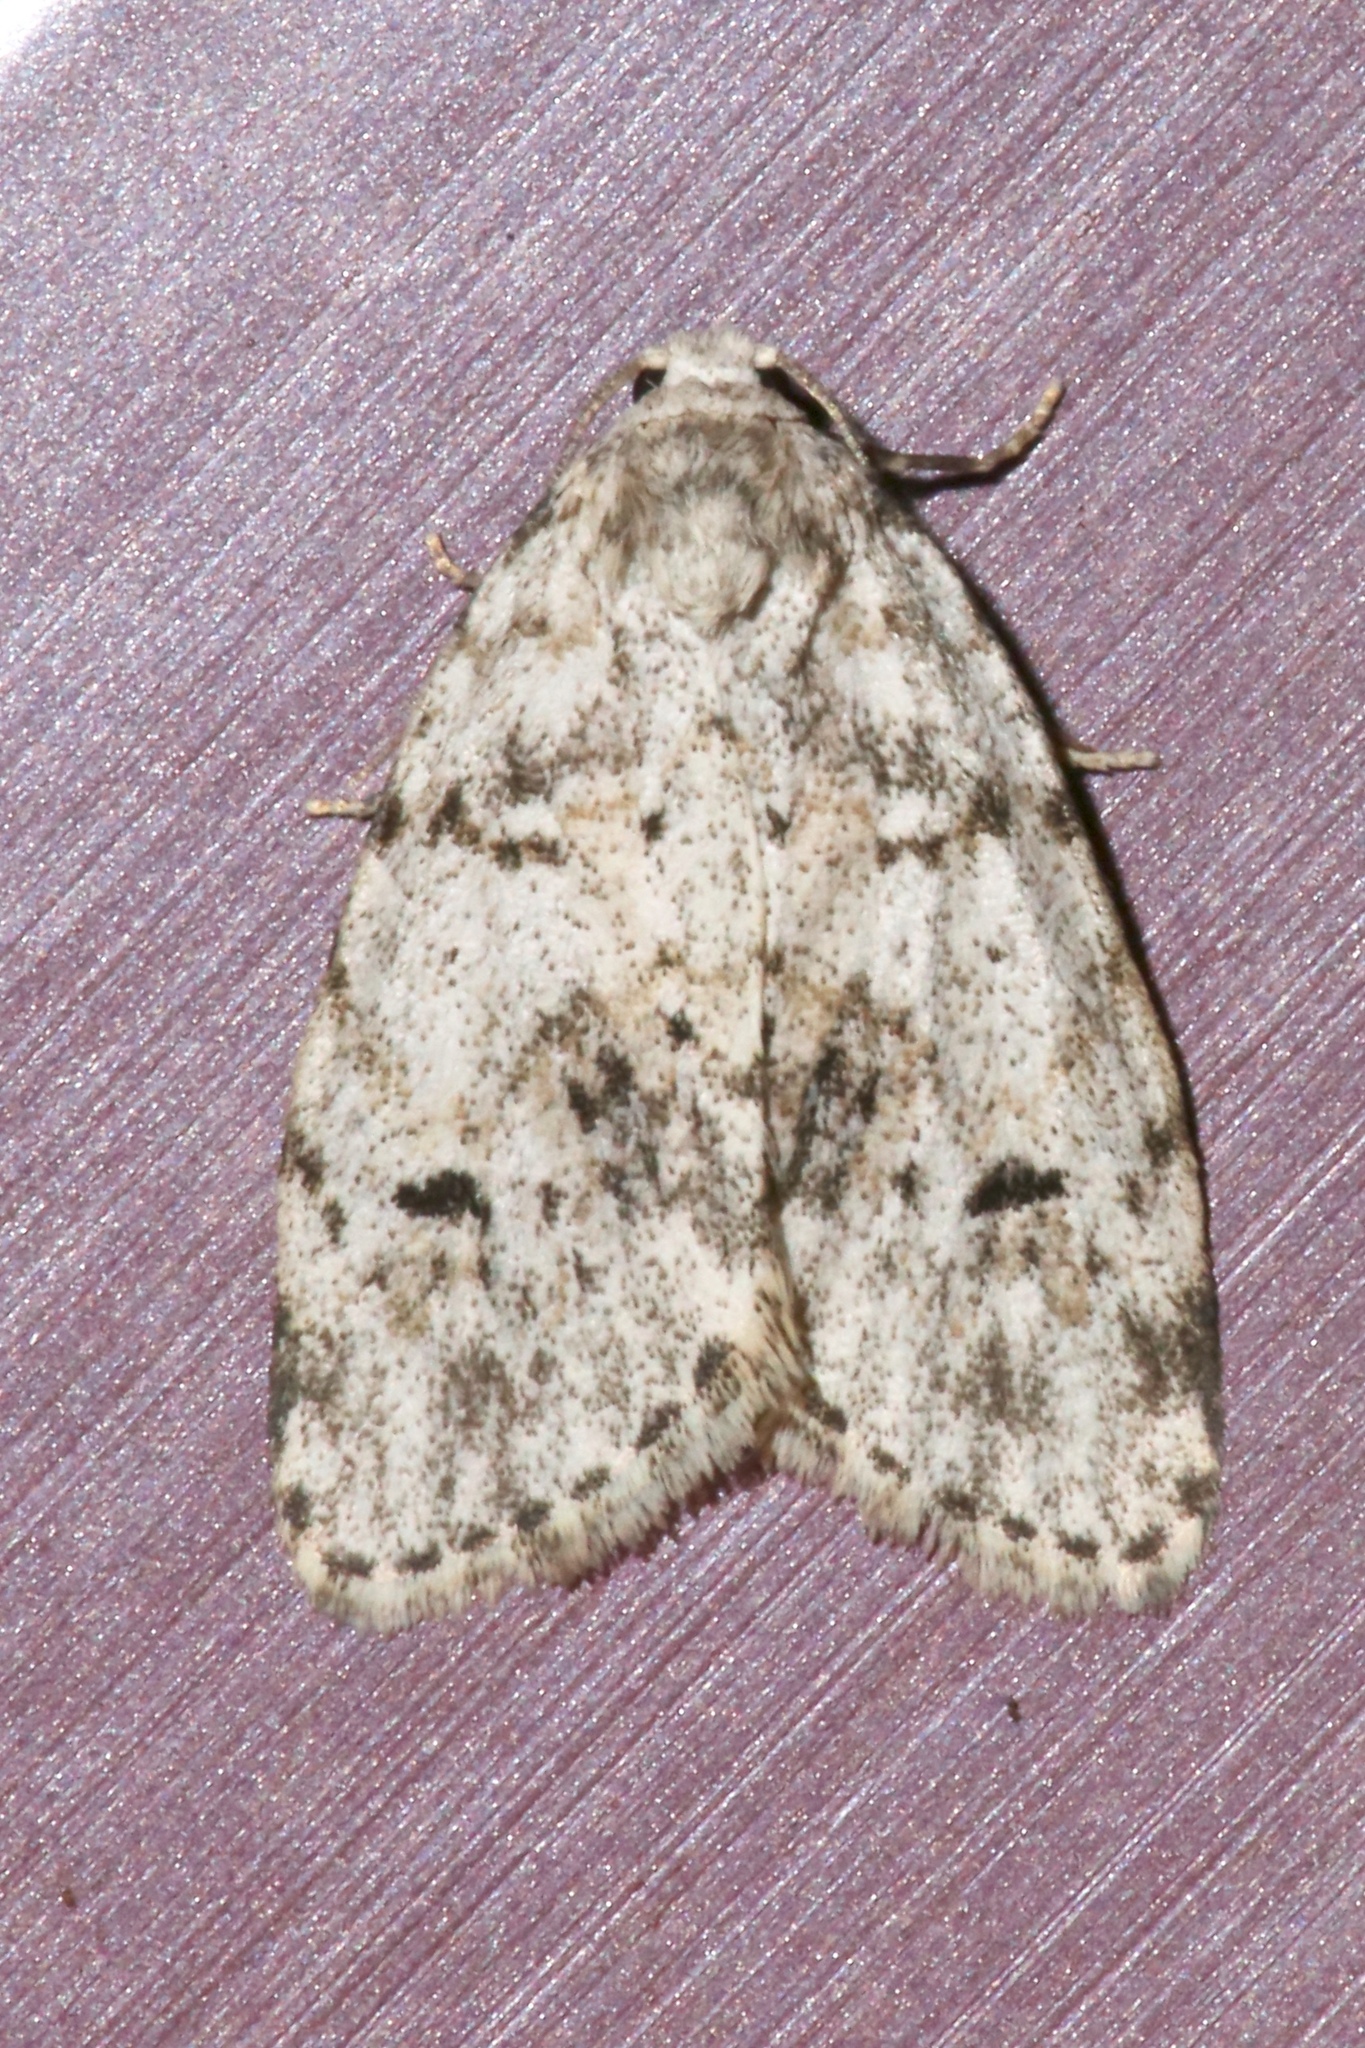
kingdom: Animalia
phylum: Arthropoda
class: Insecta
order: Lepidoptera
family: Erebidae
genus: Clemensia
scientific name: Clemensia albata
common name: Little white lichen moth
